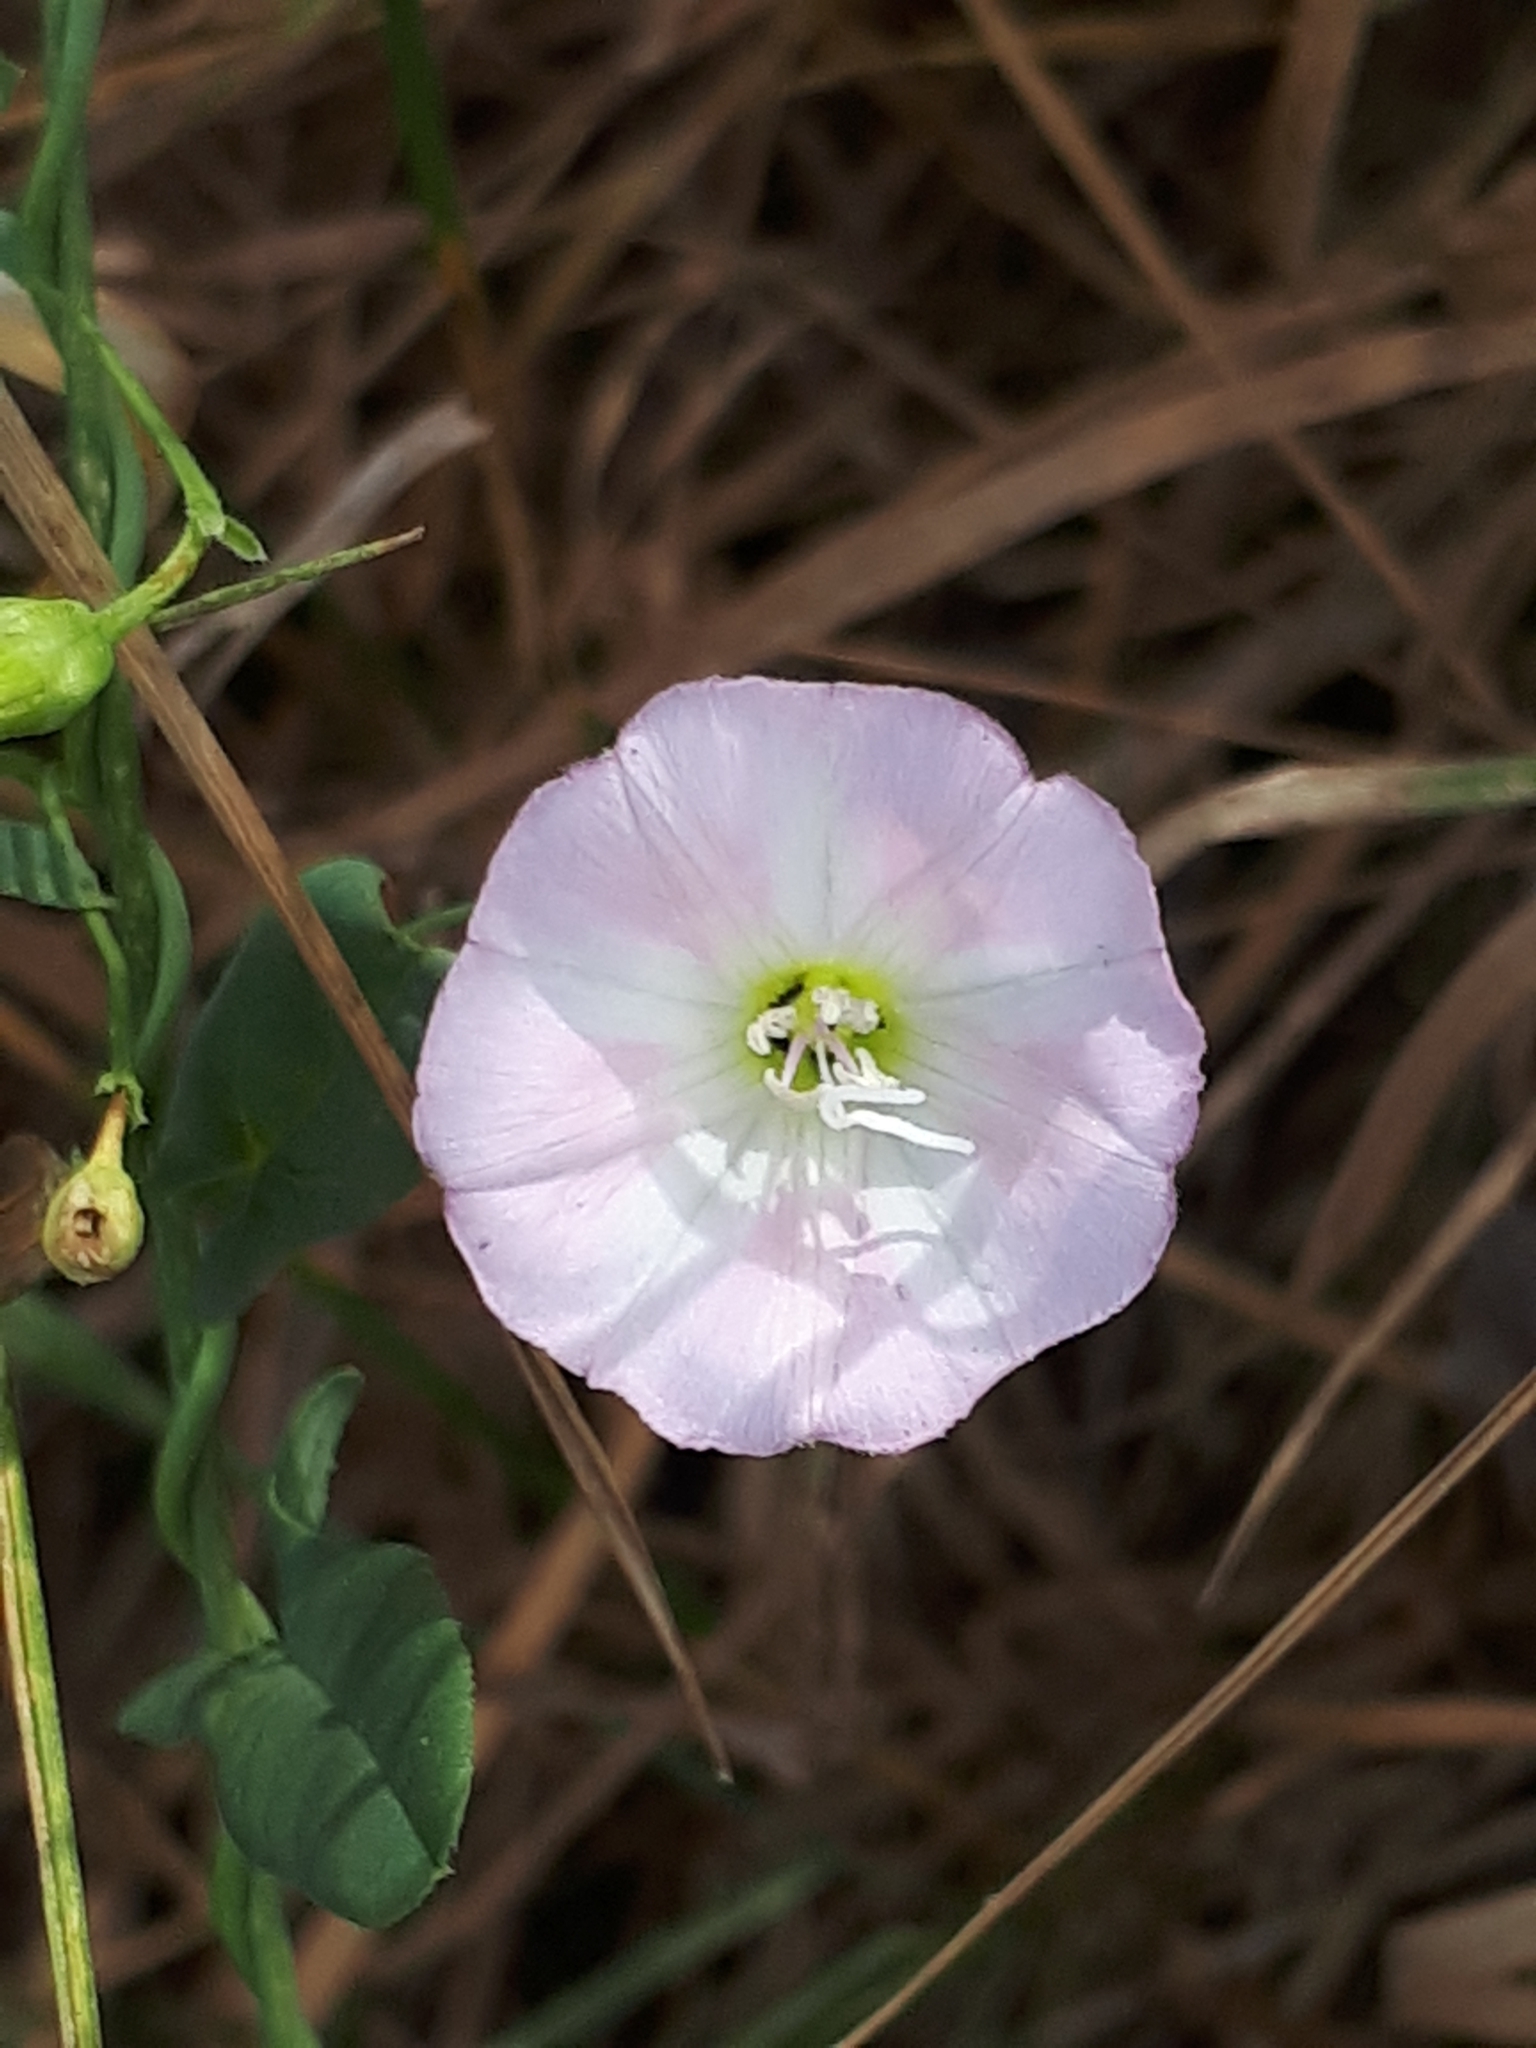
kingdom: Plantae
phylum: Tracheophyta
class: Magnoliopsida
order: Solanales
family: Convolvulaceae
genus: Convolvulus
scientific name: Convolvulus arvensis
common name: Field bindweed
